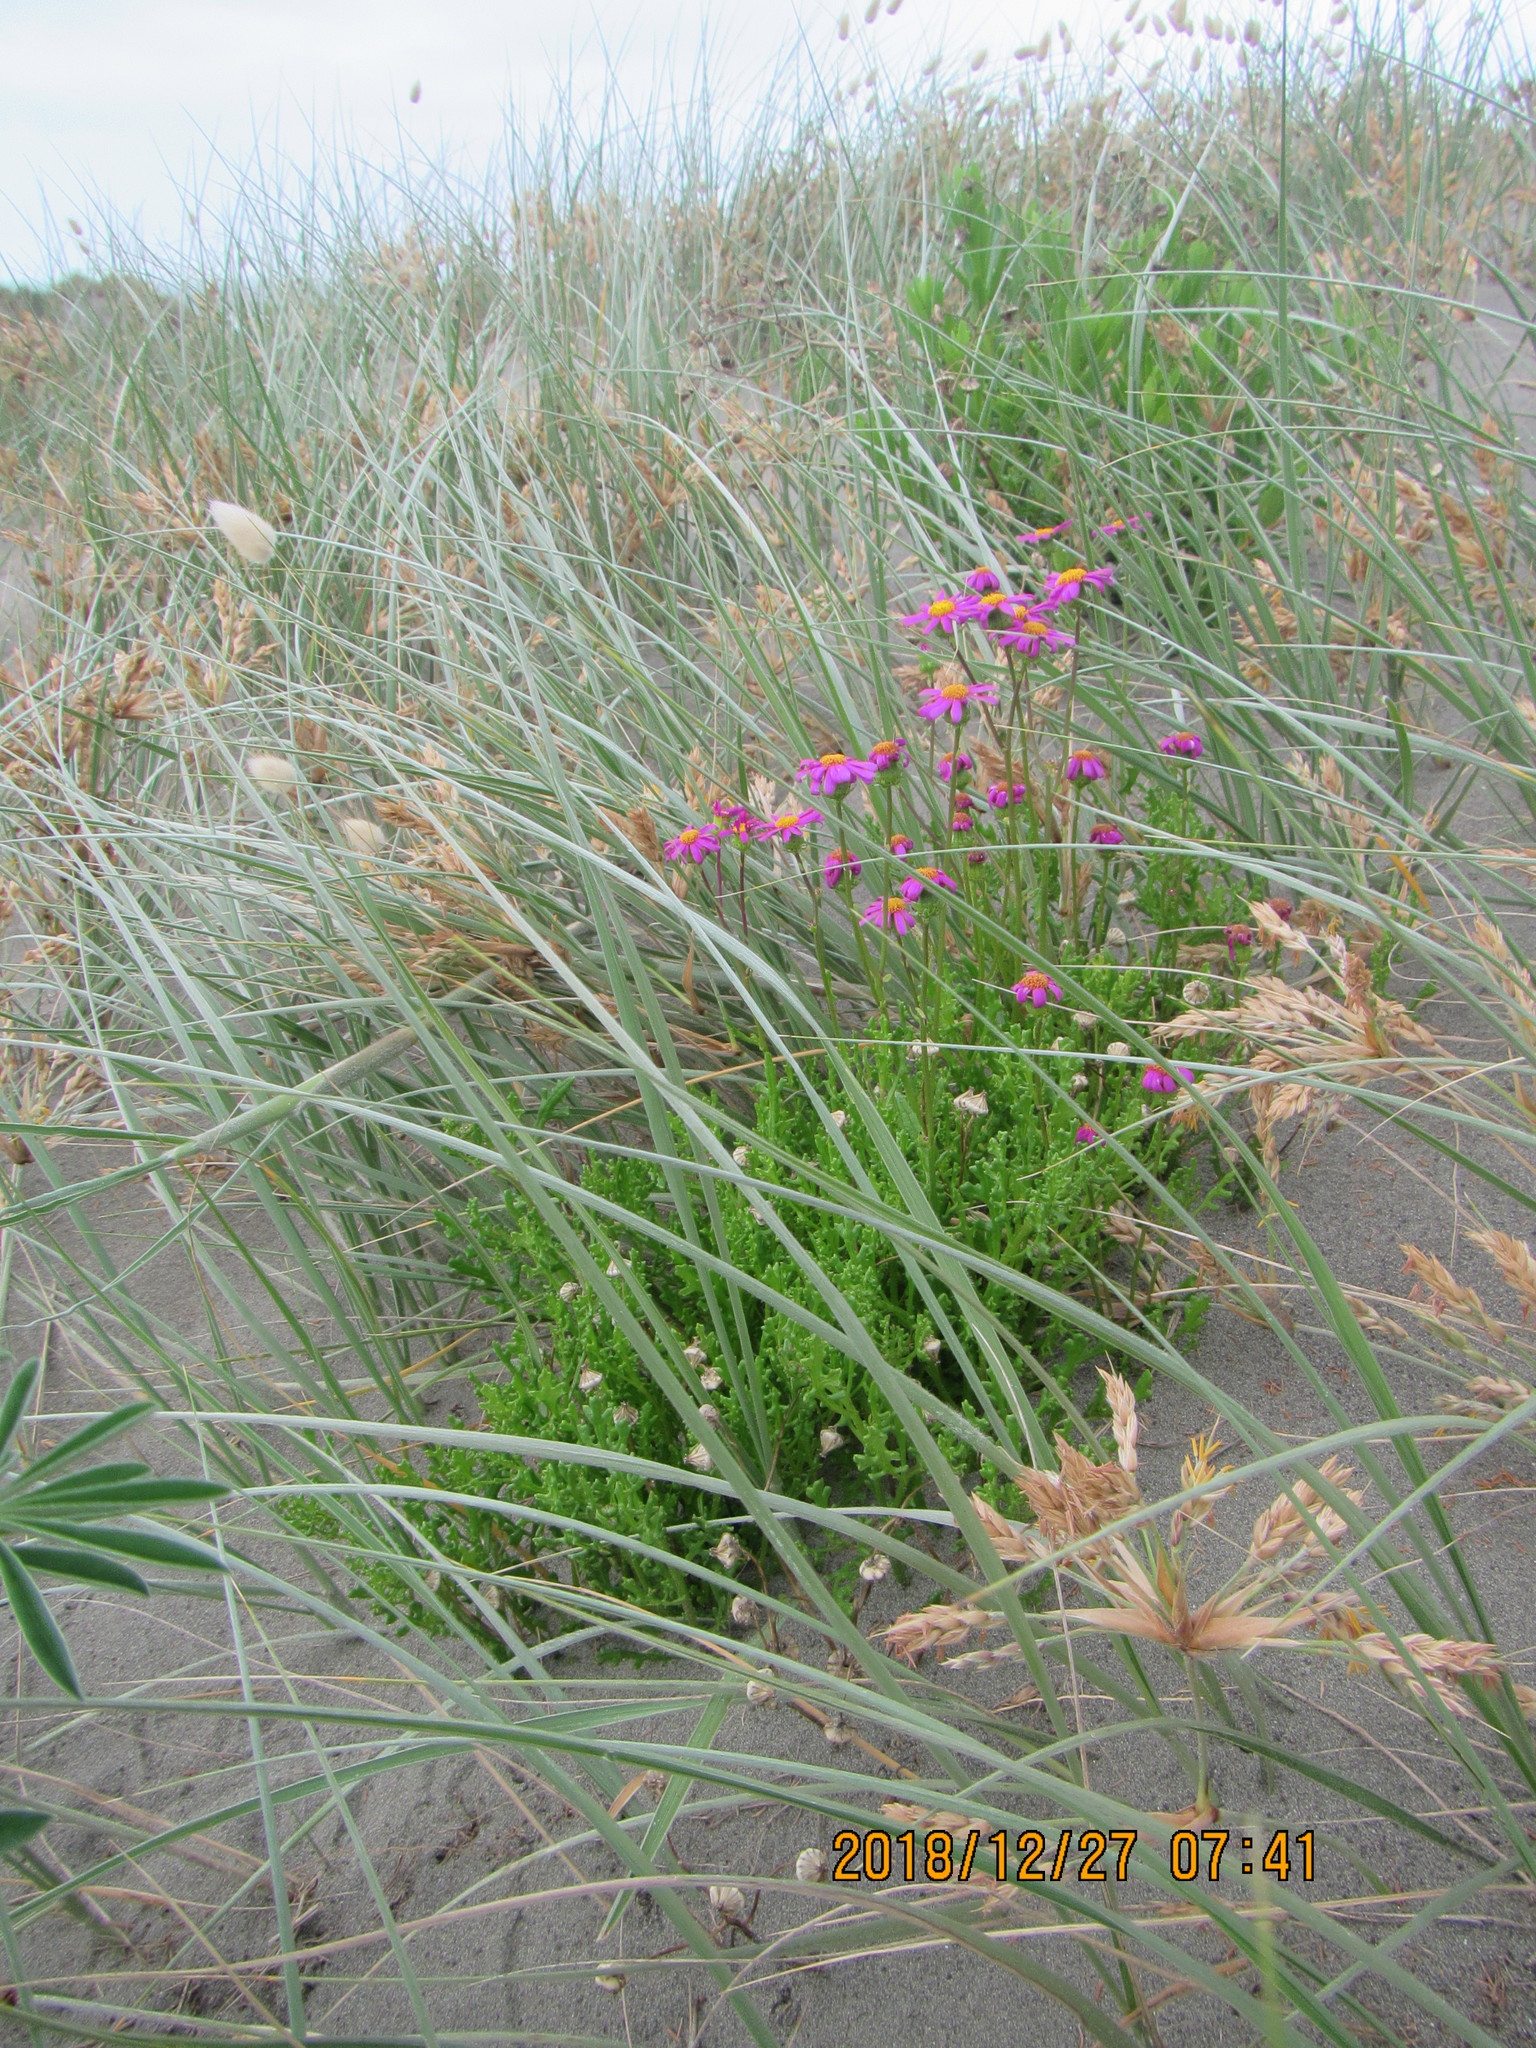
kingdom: Plantae
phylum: Tracheophyta
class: Magnoliopsida
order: Asterales
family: Asteraceae
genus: Senecio
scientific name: Senecio elegans
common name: Purple groundsel
